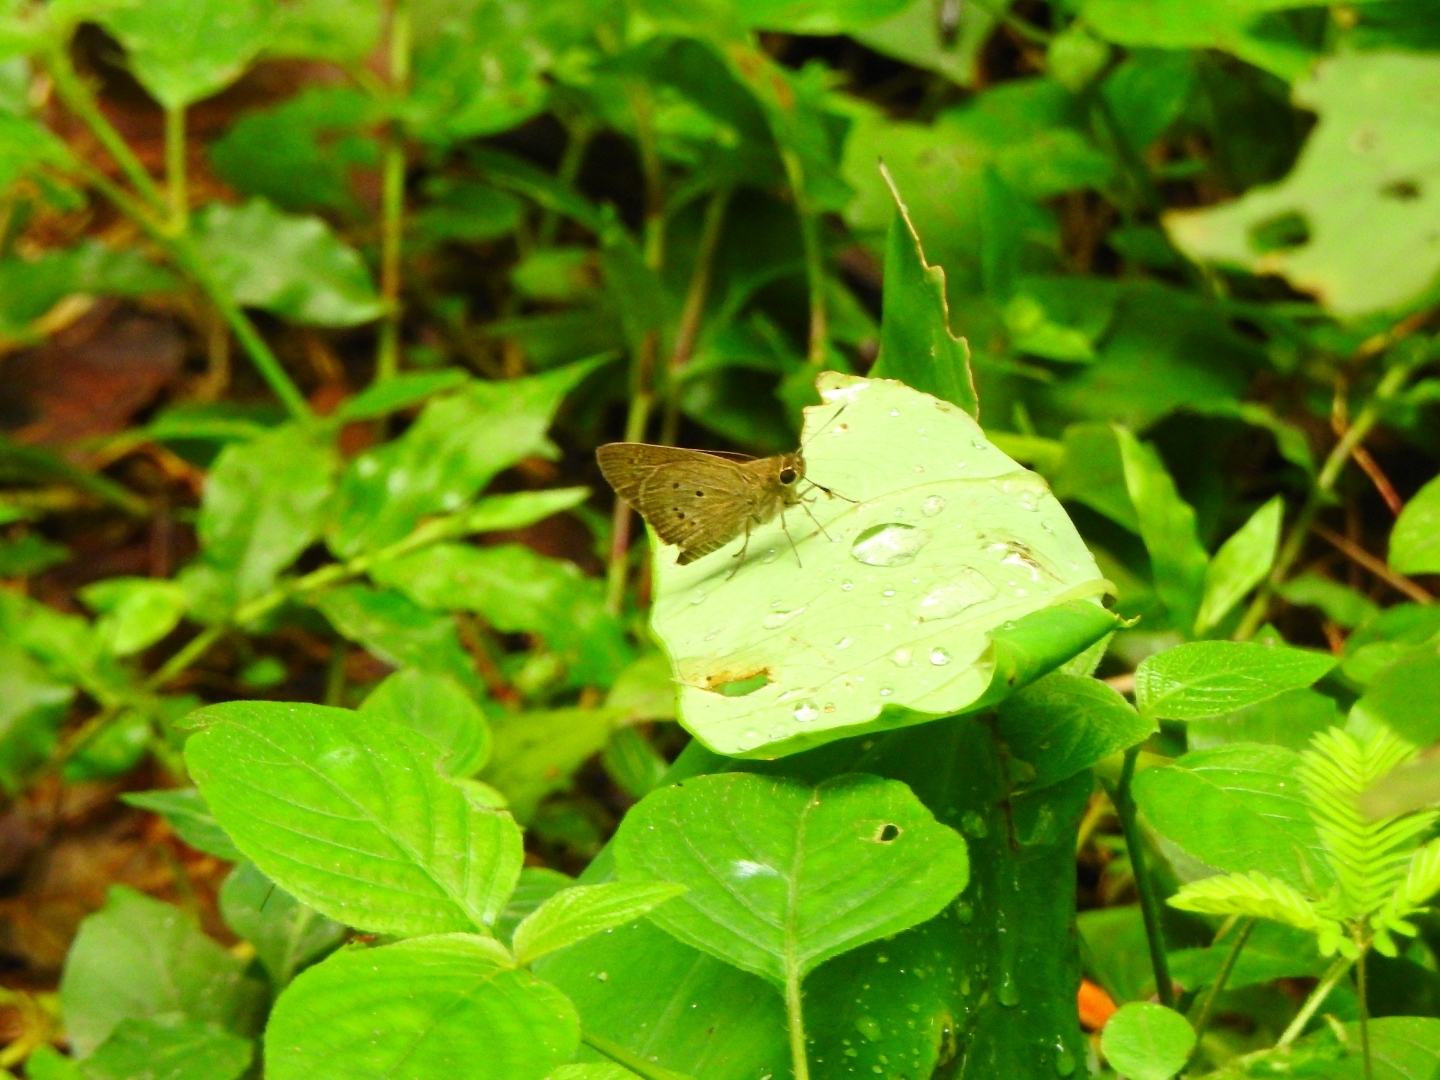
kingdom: Animalia
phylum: Arthropoda
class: Insecta
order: Lepidoptera
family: Hesperiidae
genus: Suastus
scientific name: Suastus gremius
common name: Indian palm bob
